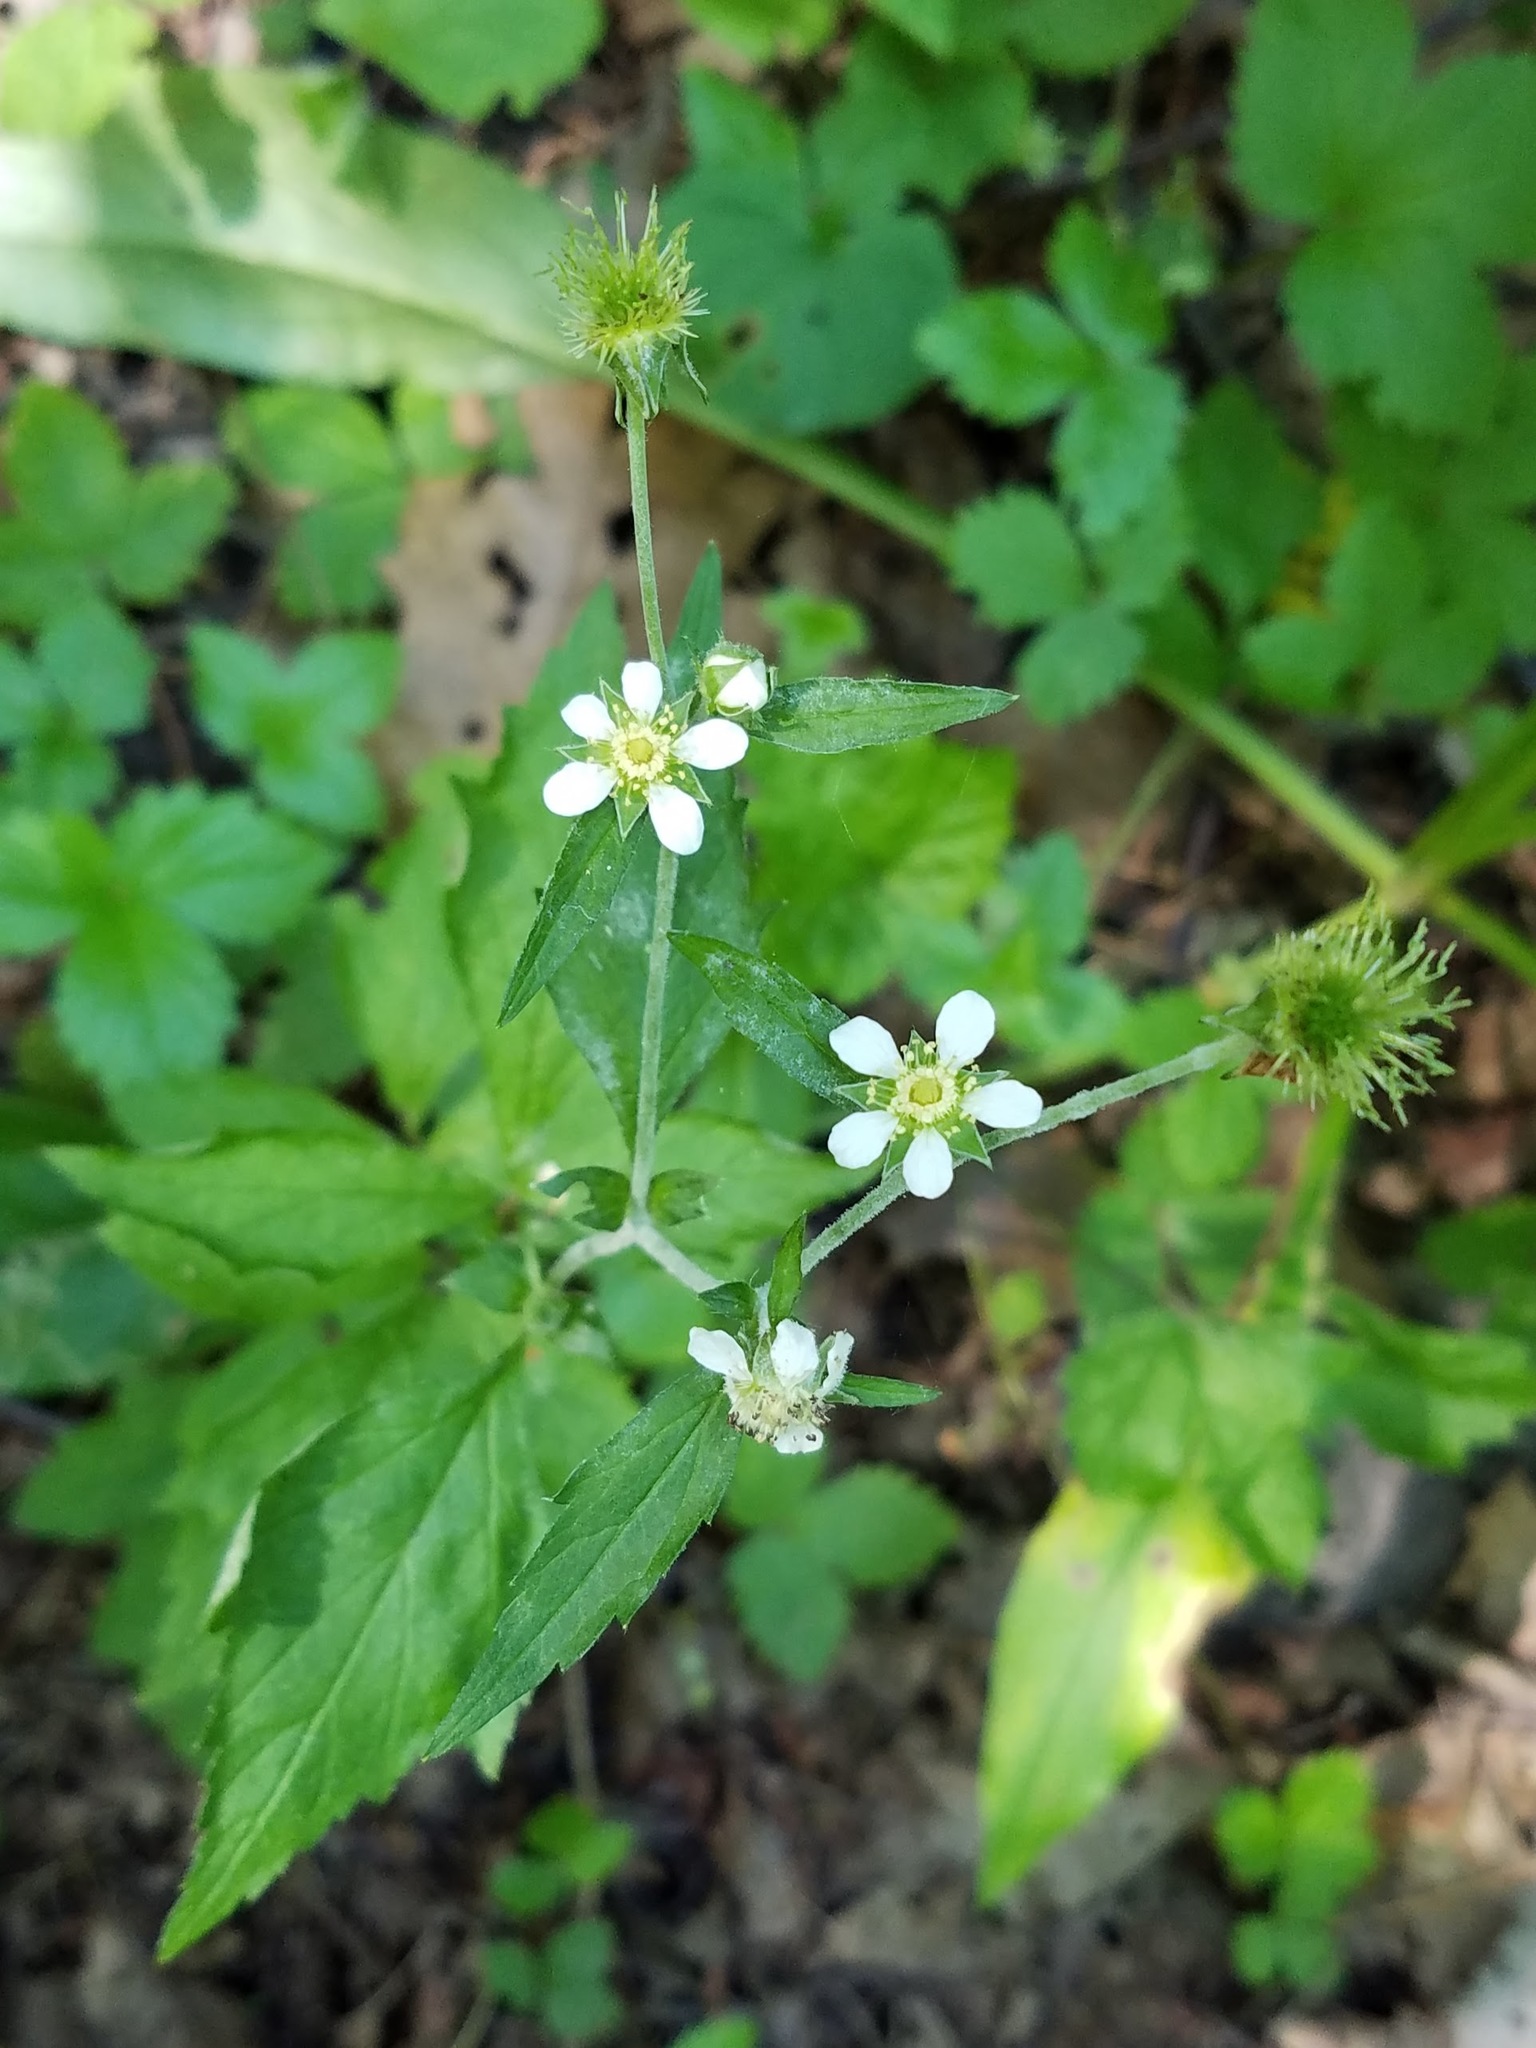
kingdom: Plantae
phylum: Tracheophyta
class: Magnoliopsida
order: Rosales
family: Rosaceae
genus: Geum
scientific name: Geum canadense
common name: White avens
